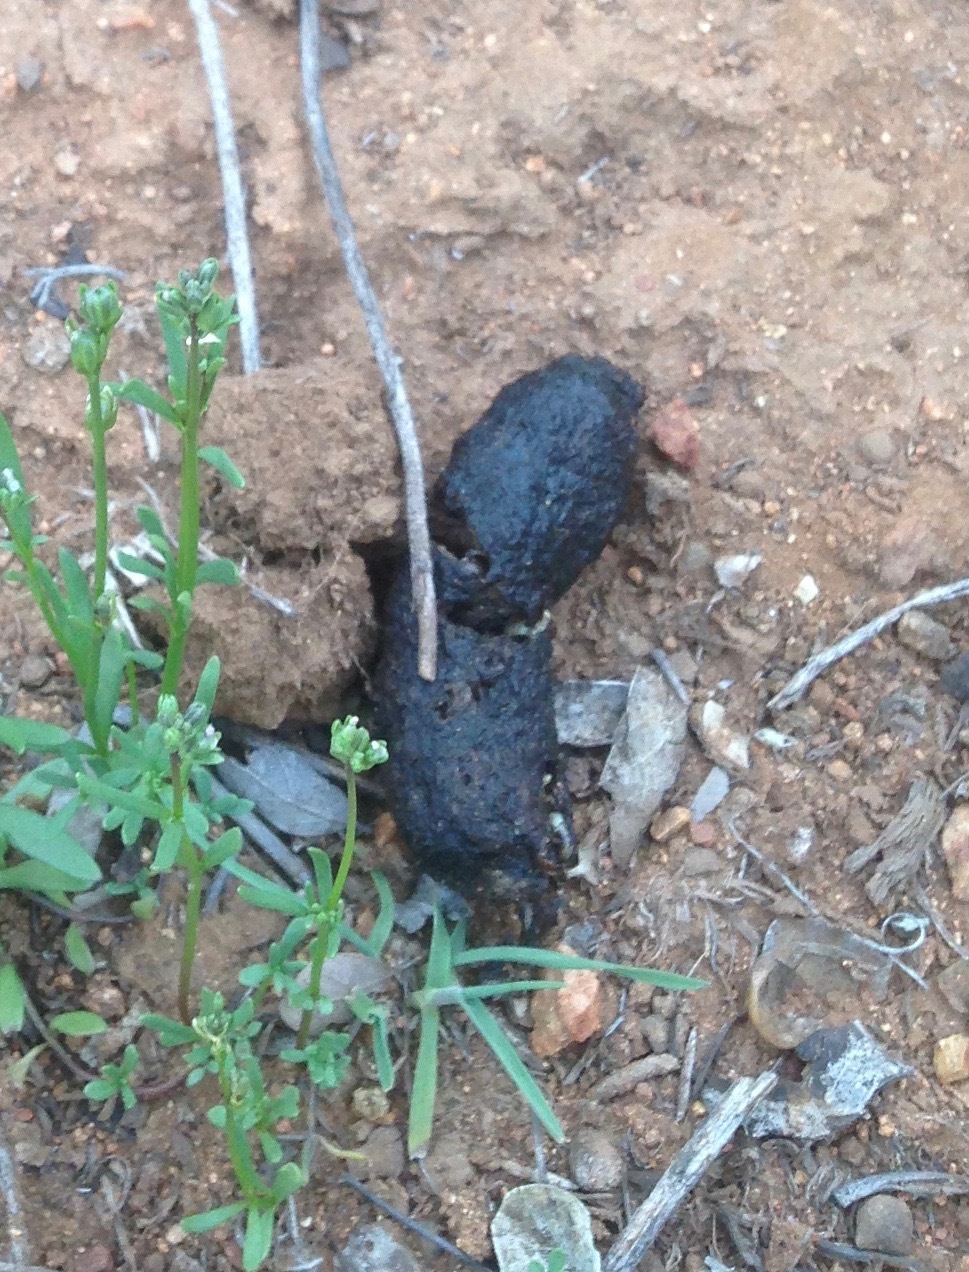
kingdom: Animalia
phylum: Chordata
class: Mammalia
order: Carnivora
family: Canidae
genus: Urocyon
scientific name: Urocyon littoralis
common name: Island gray fox
